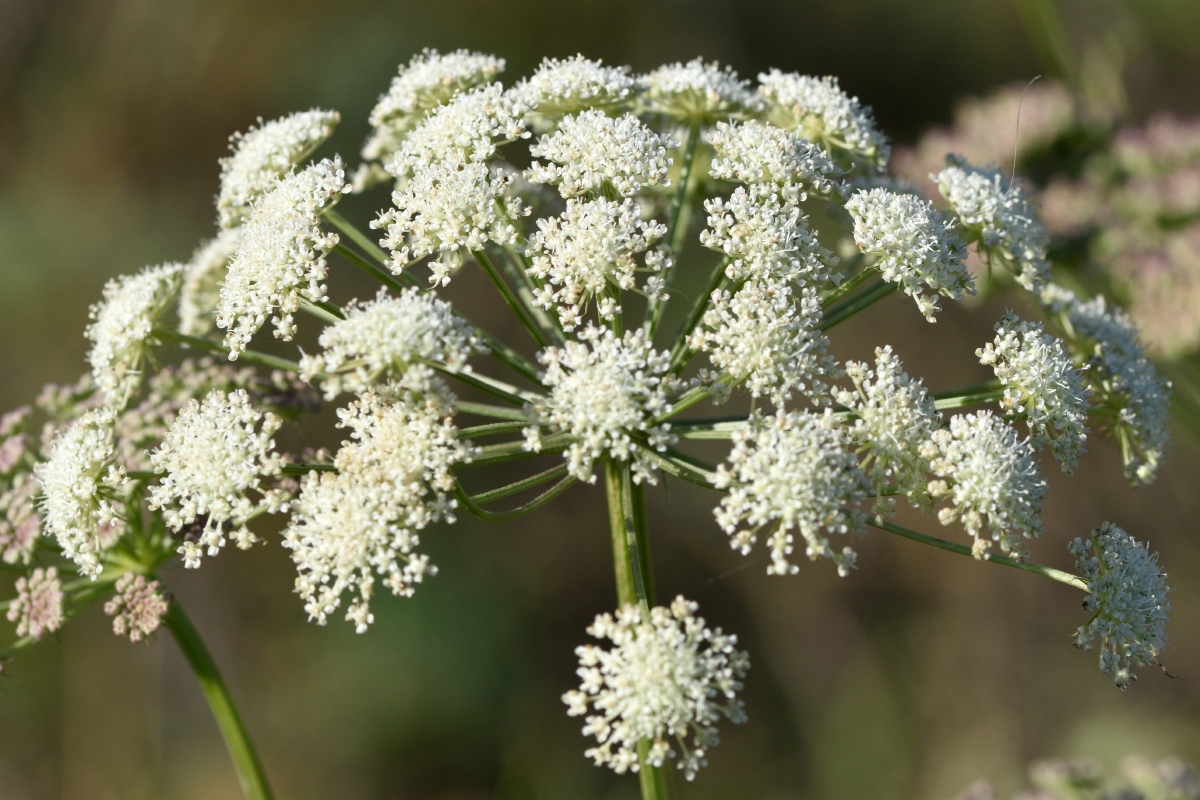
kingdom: Plantae
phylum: Tracheophyta
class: Magnoliopsida
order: Apiales
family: Apiaceae
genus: Seseli
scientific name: Seseli libanotis
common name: Mooncarrot
